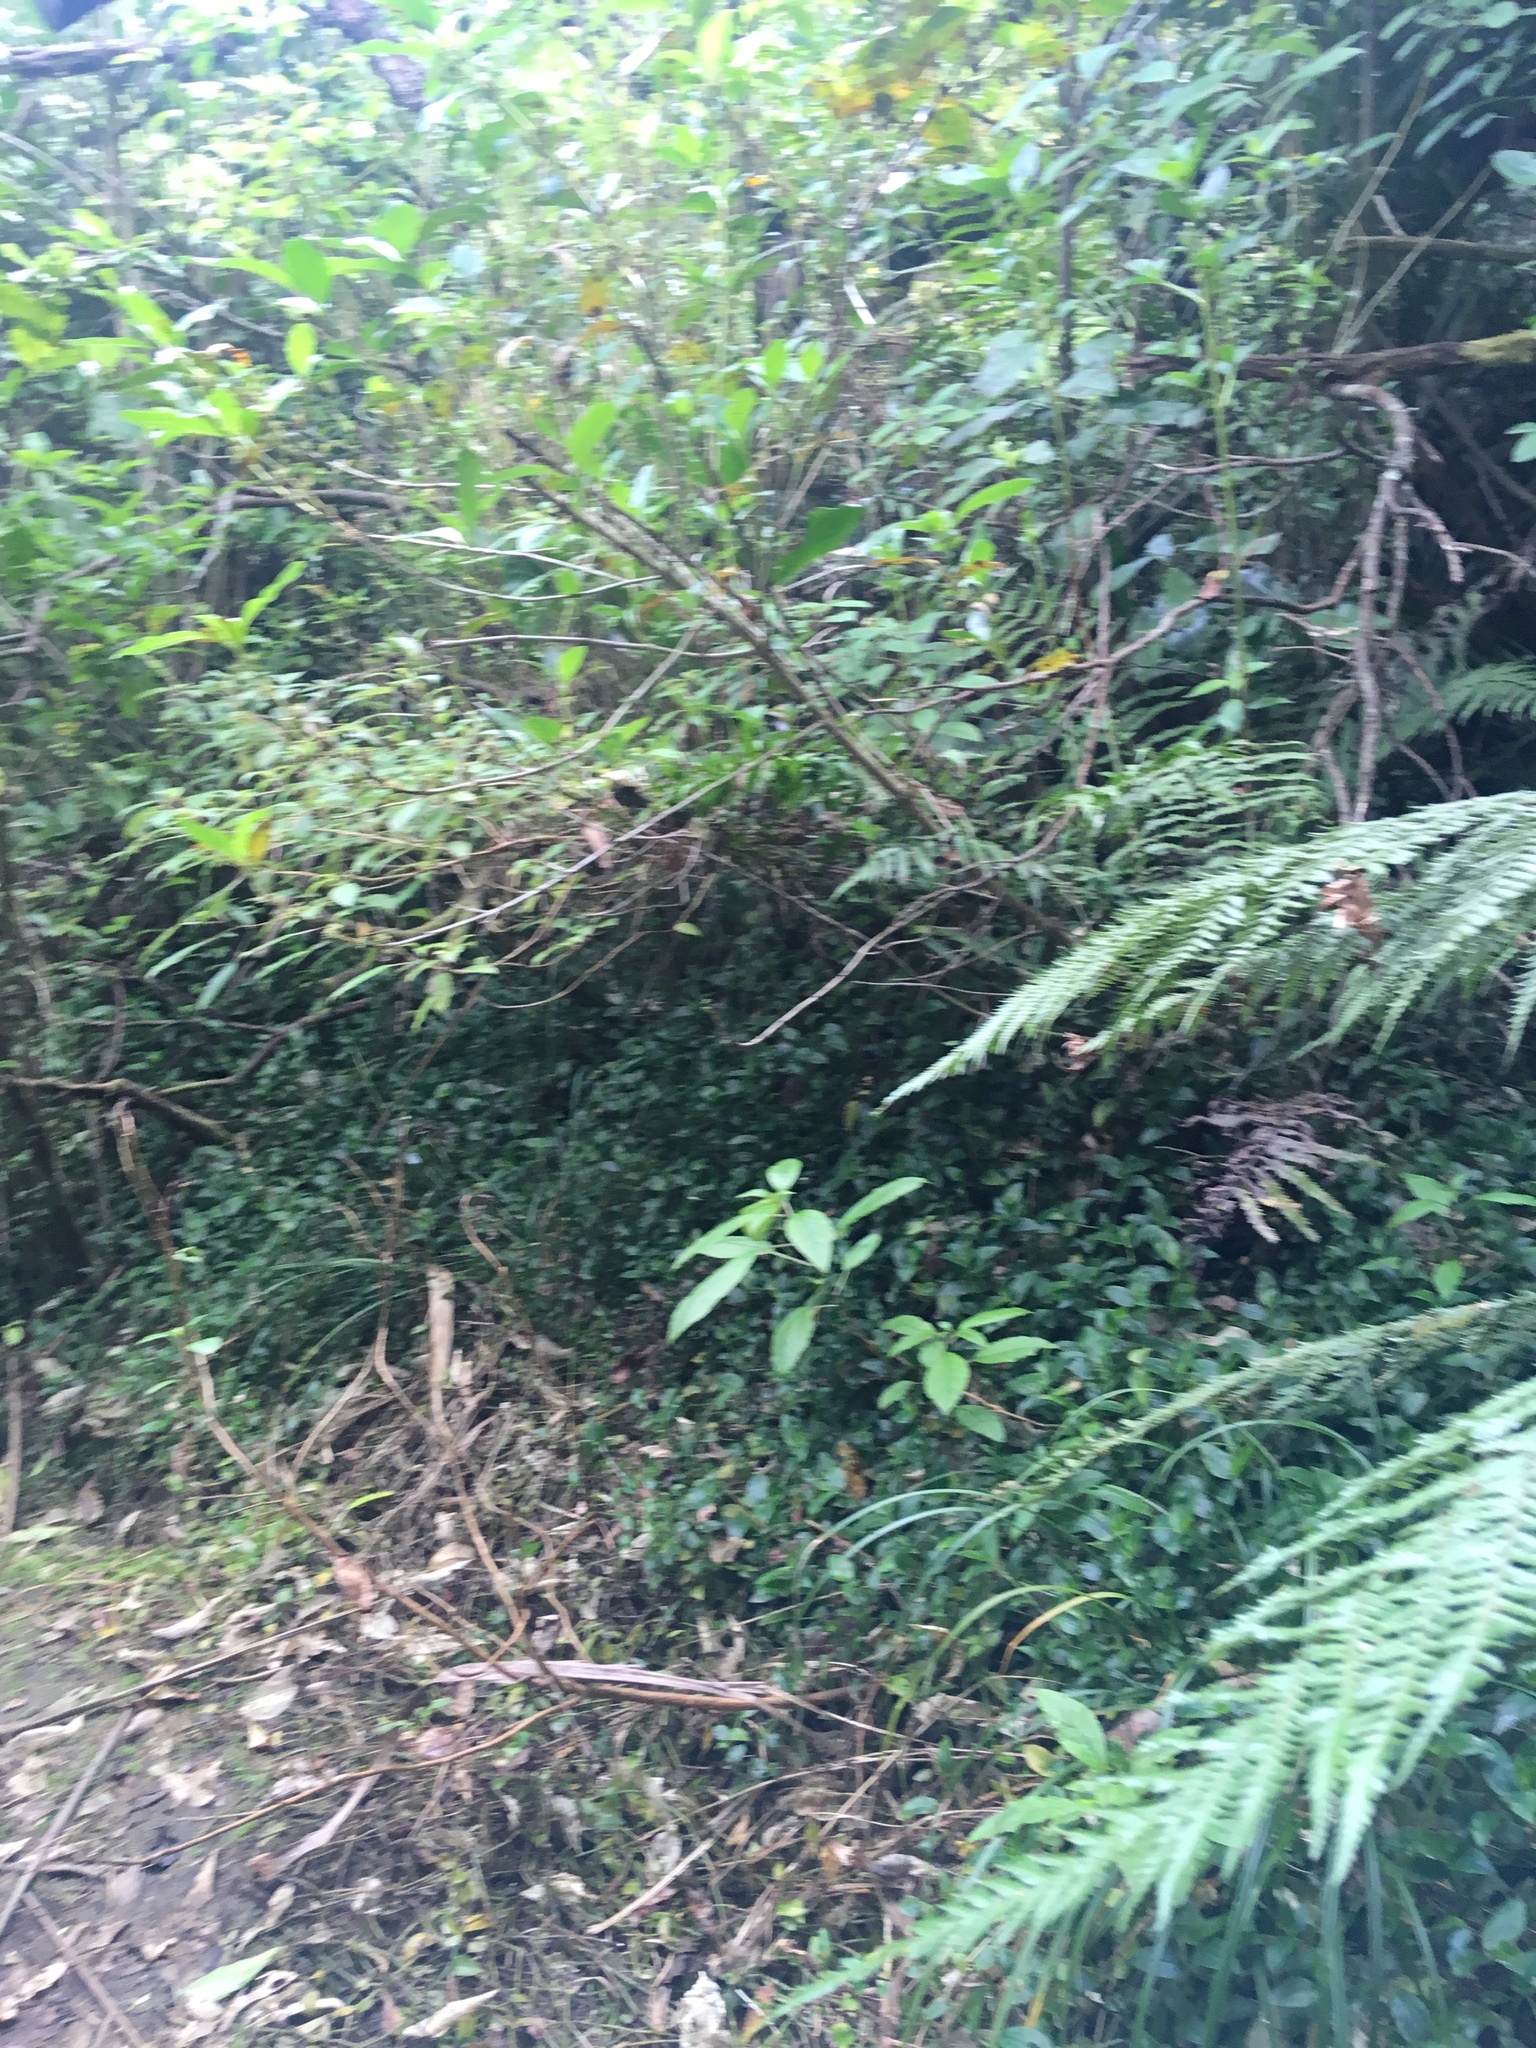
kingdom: Plantae
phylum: Tracheophyta
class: Liliopsida
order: Commelinales
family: Commelinaceae
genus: Tradescantia
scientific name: Tradescantia fluminensis
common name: Wandering-jew
